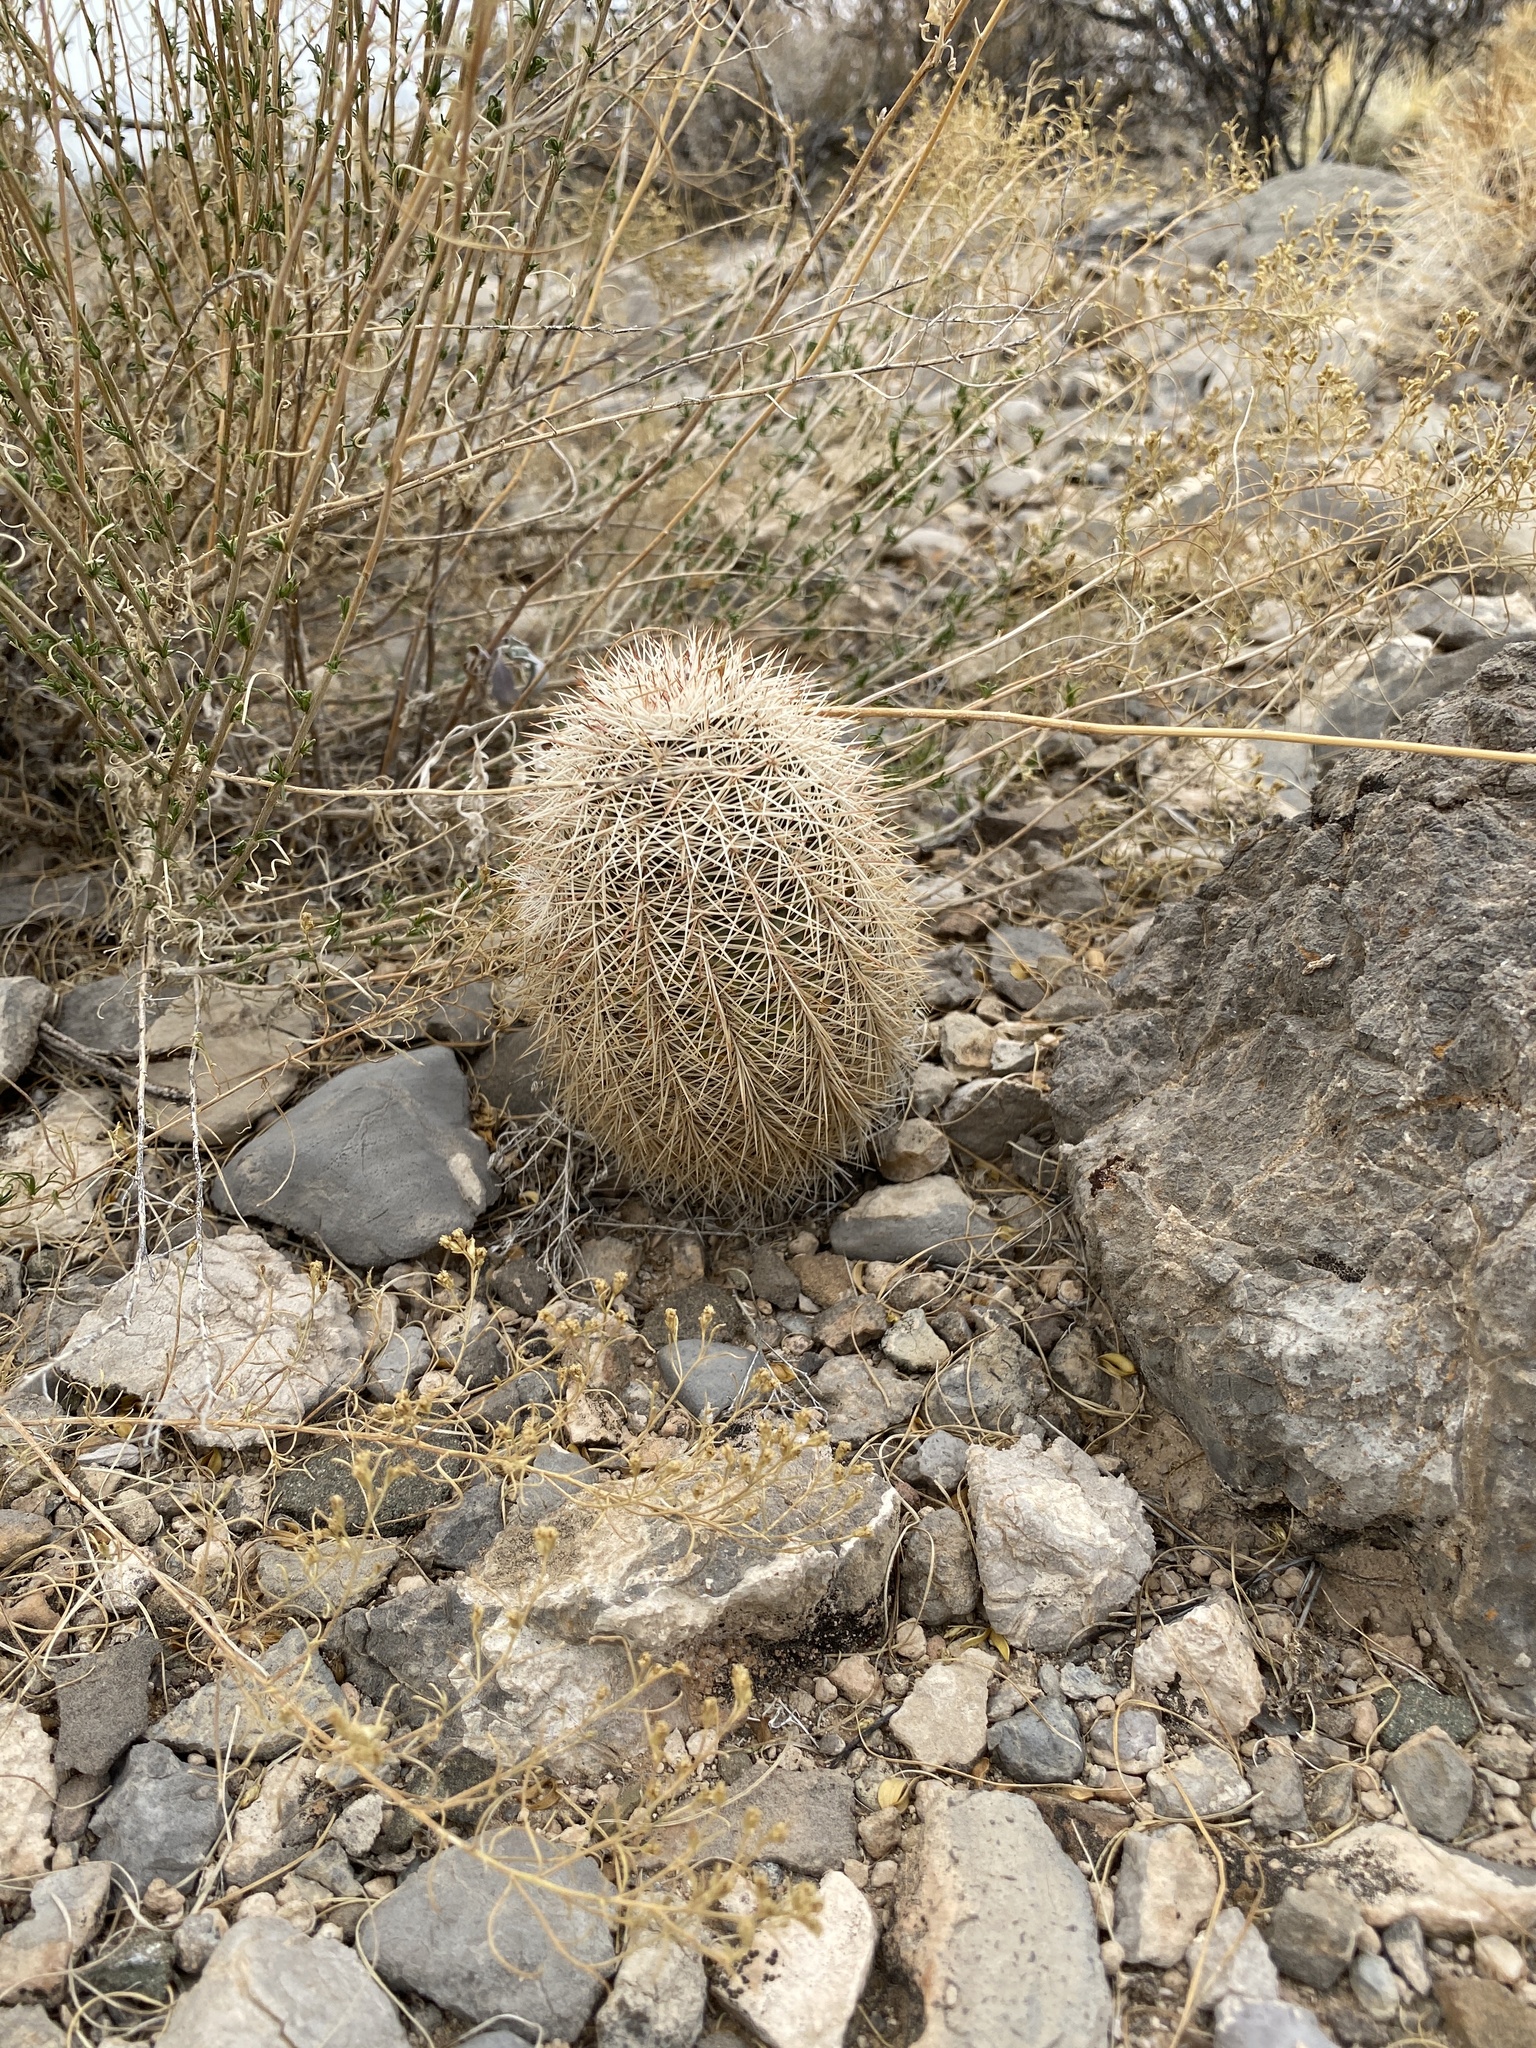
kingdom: Plantae
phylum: Tracheophyta
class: Magnoliopsida
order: Caryophyllales
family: Cactaceae
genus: Echinocereus
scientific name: Echinocereus dasyacanthus
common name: Spiny hedgehog cactus
